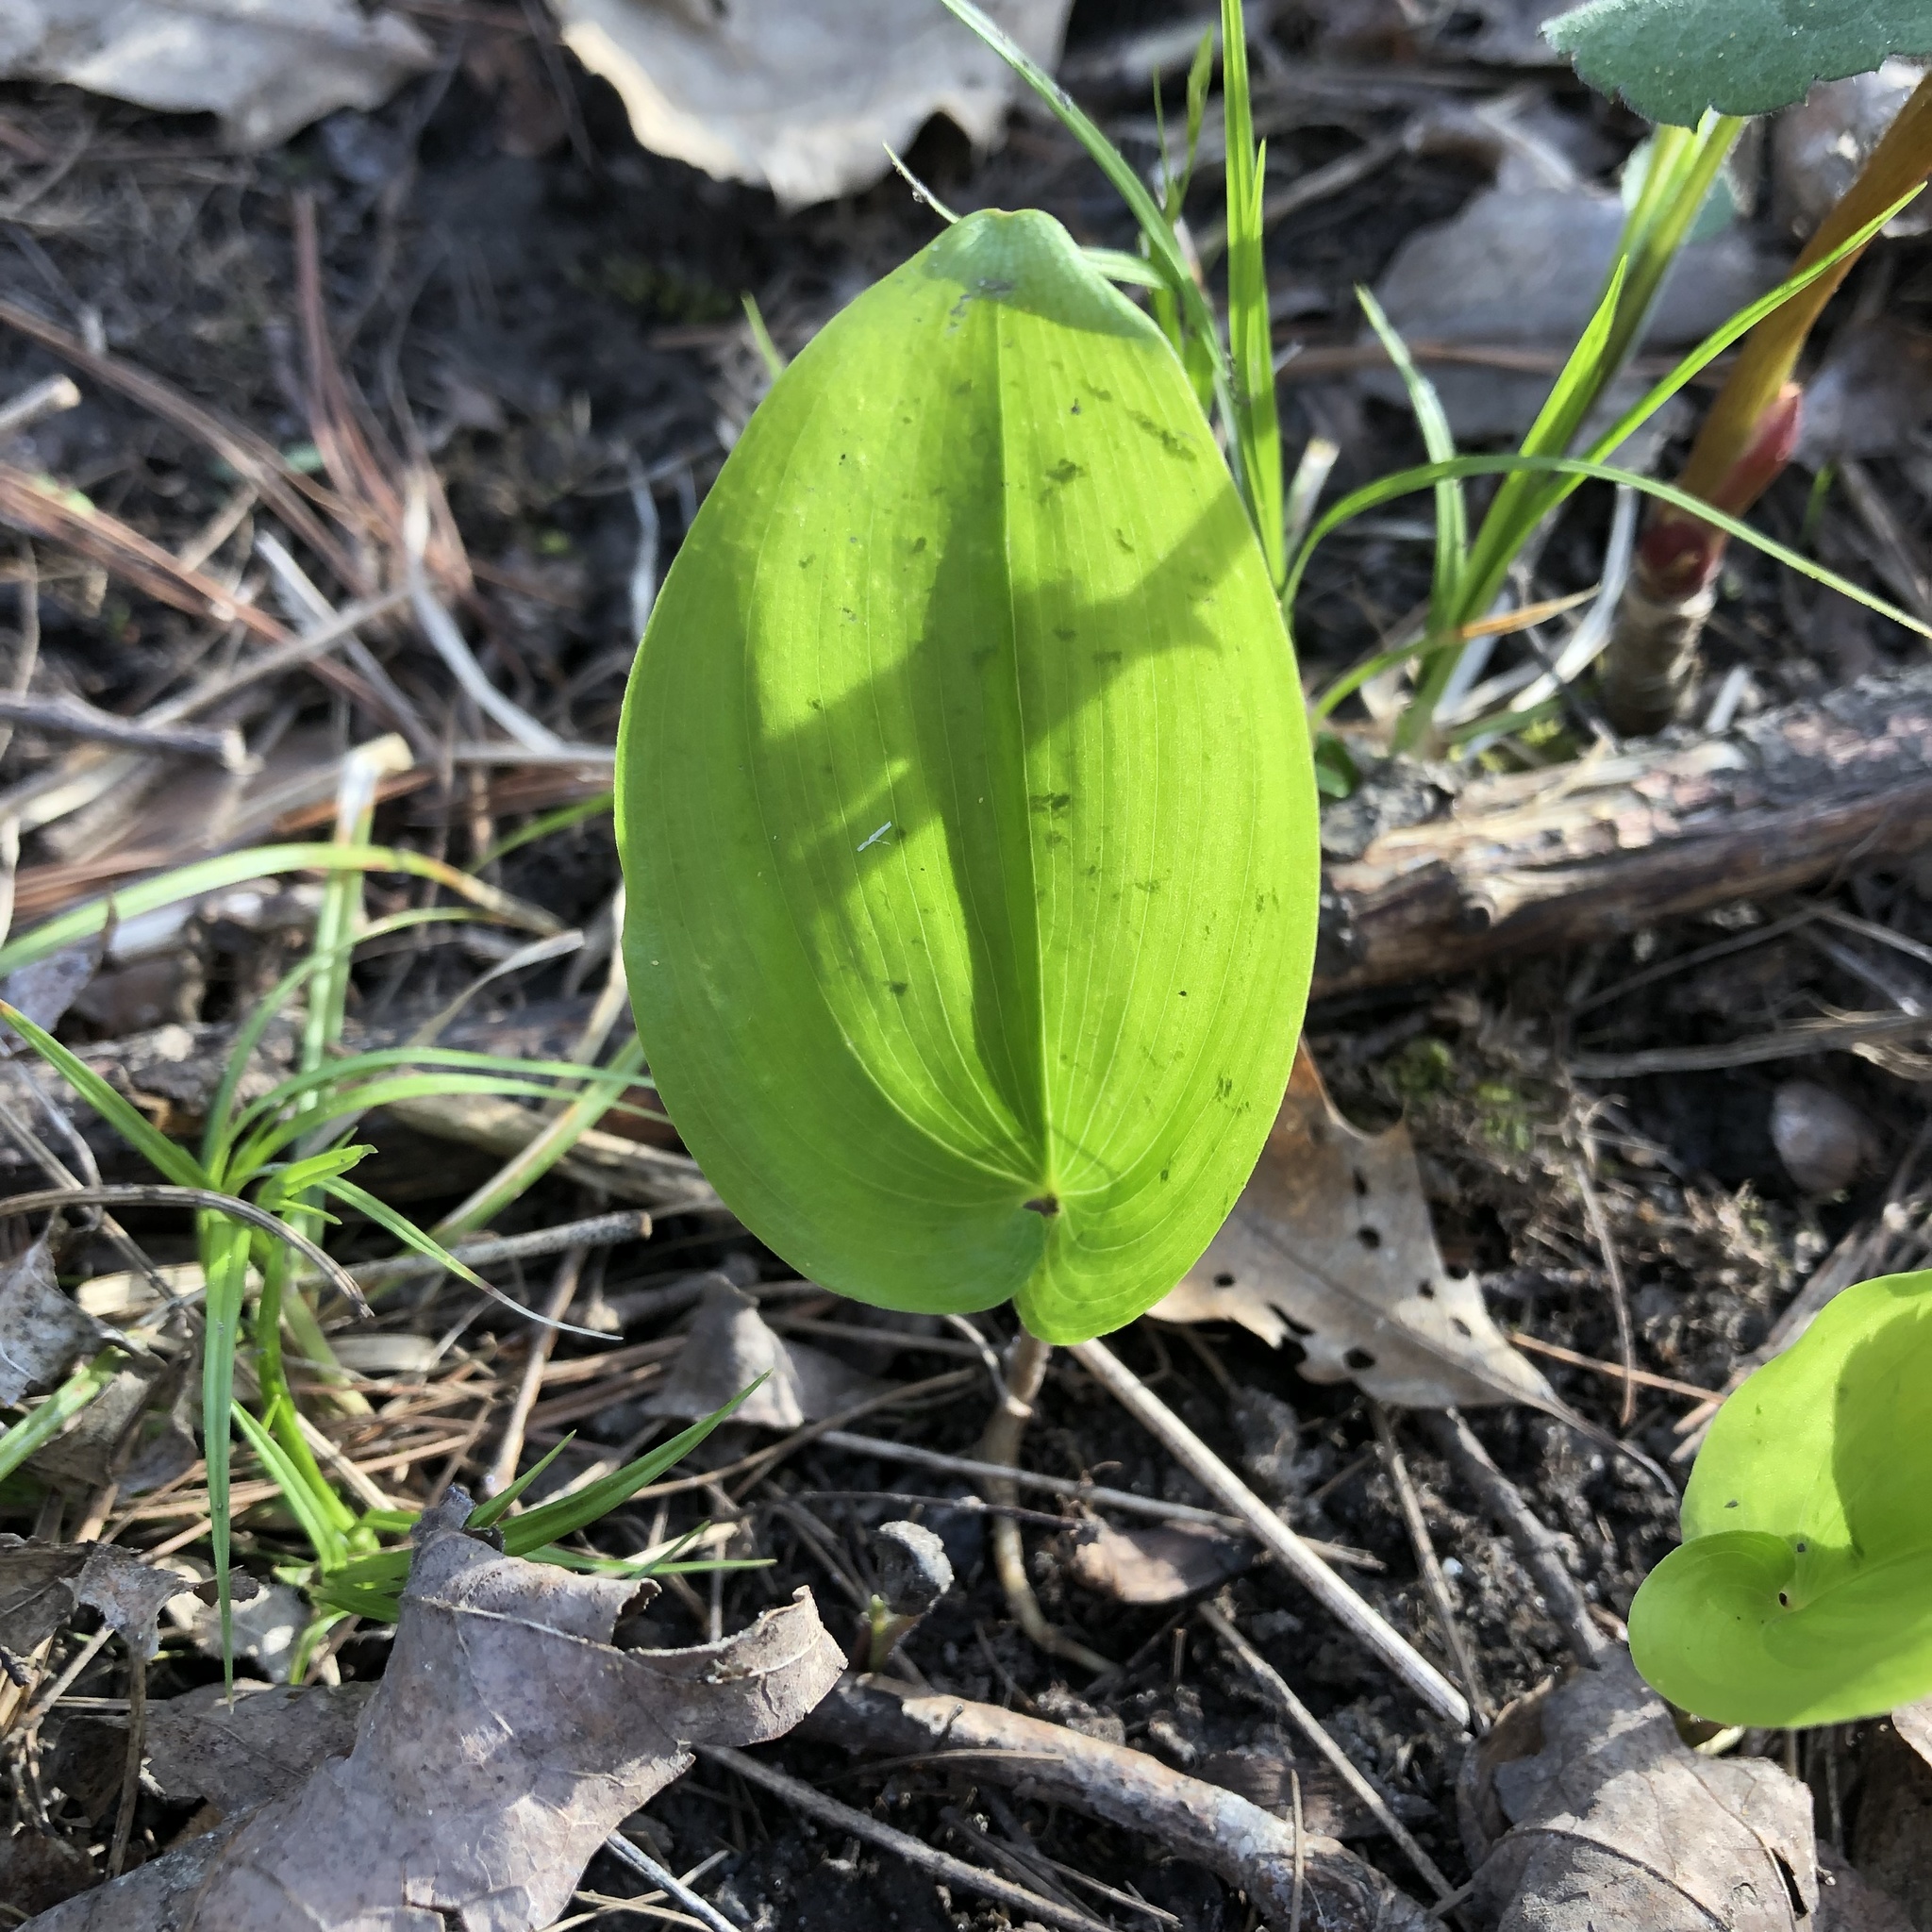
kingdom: Plantae
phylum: Tracheophyta
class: Liliopsida
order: Asparagales
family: Asparagaceae
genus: Maianthemum
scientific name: Maianthemum canadense
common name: False lily-of-the-valley
